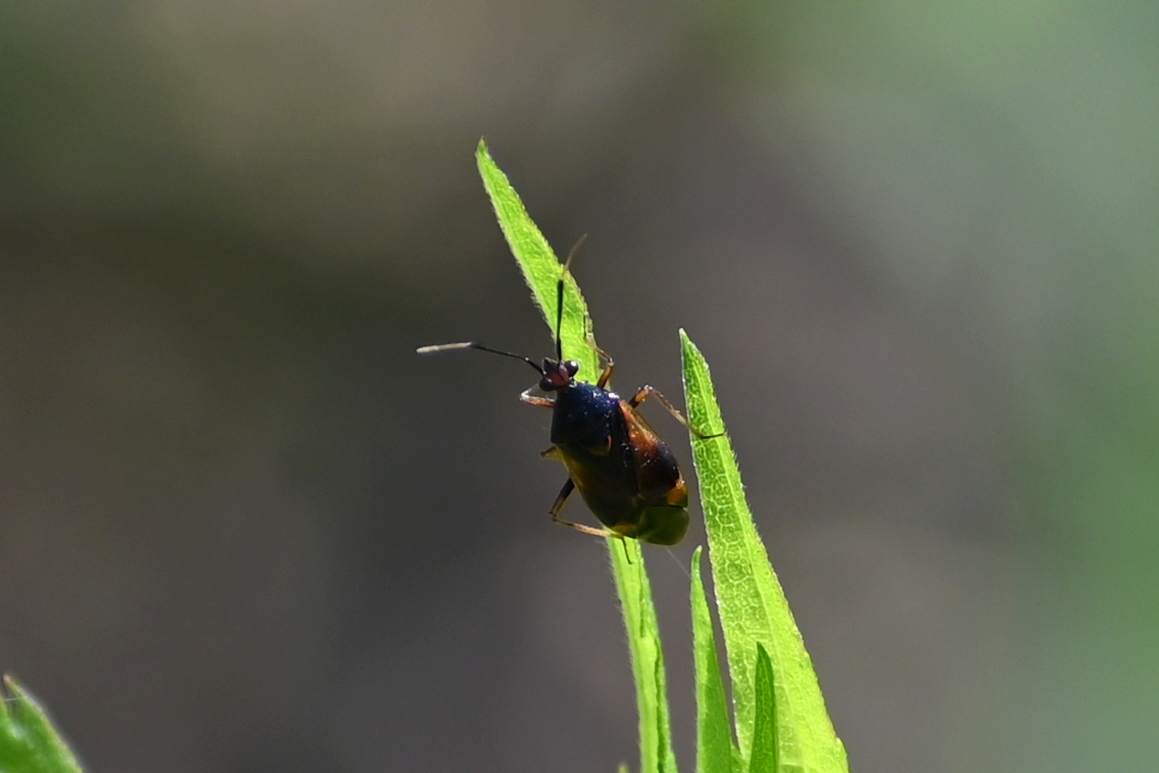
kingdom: Animalia
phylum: Arthropoda
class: Insecta
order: Hemiptera
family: Miridae
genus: Deraeocoris
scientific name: Deraeocoris ruber
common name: Plant bug
